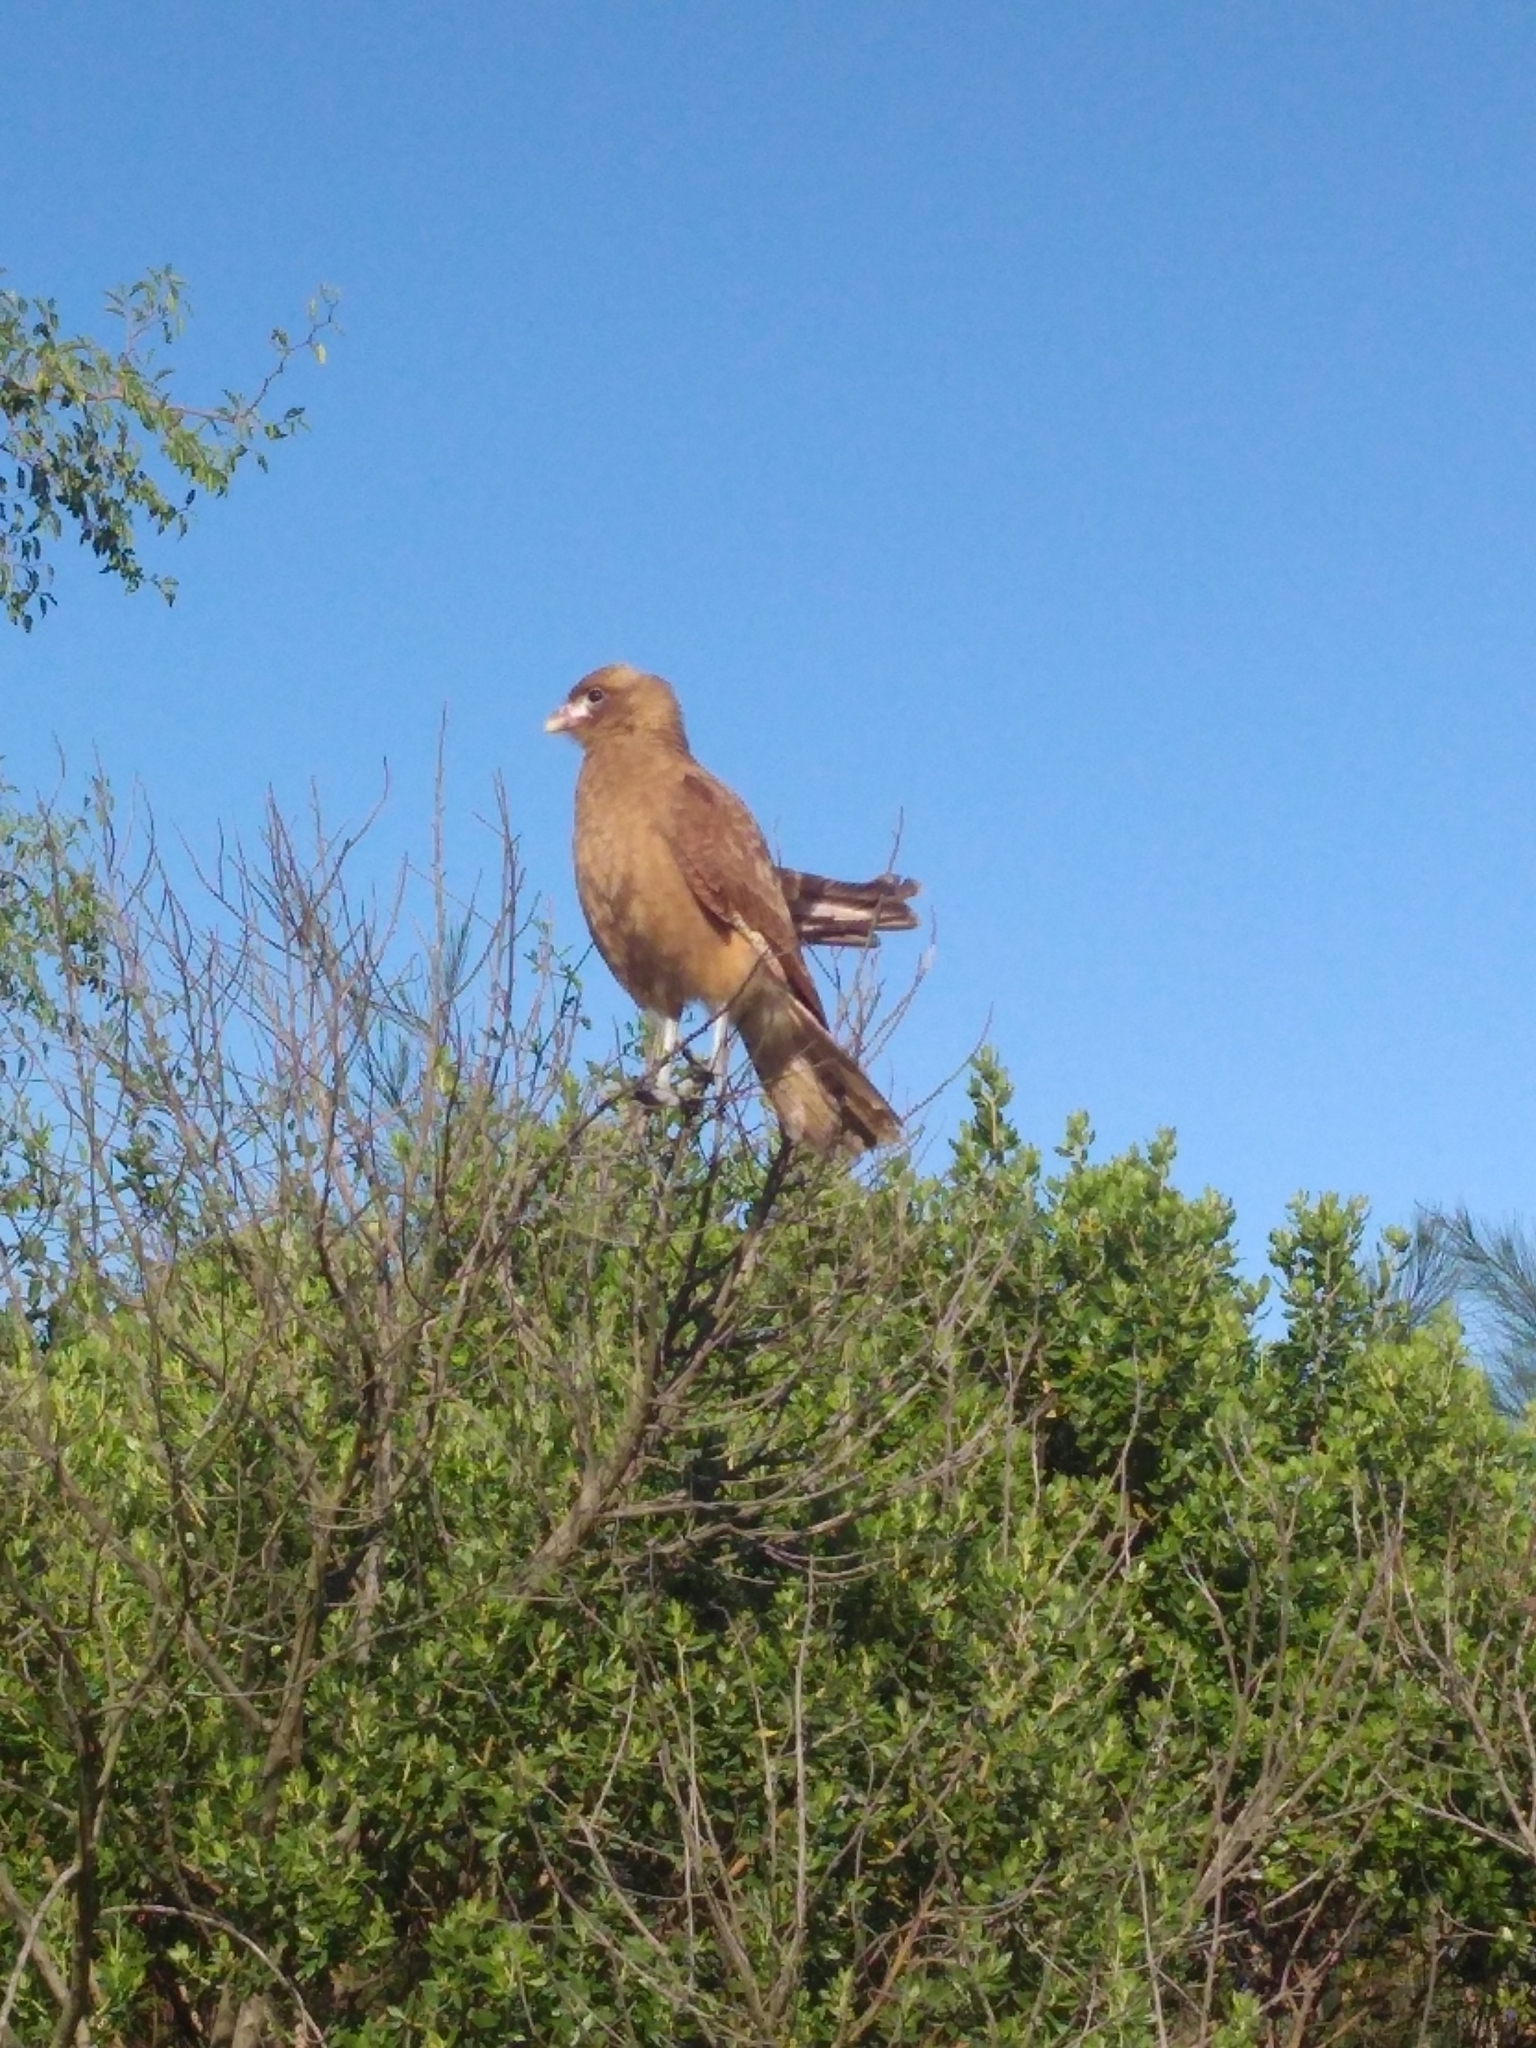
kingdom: Animalia
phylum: Chordata
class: Aves
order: Falconiformes
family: Falconidae
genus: Daptrius
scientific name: Daptrius
